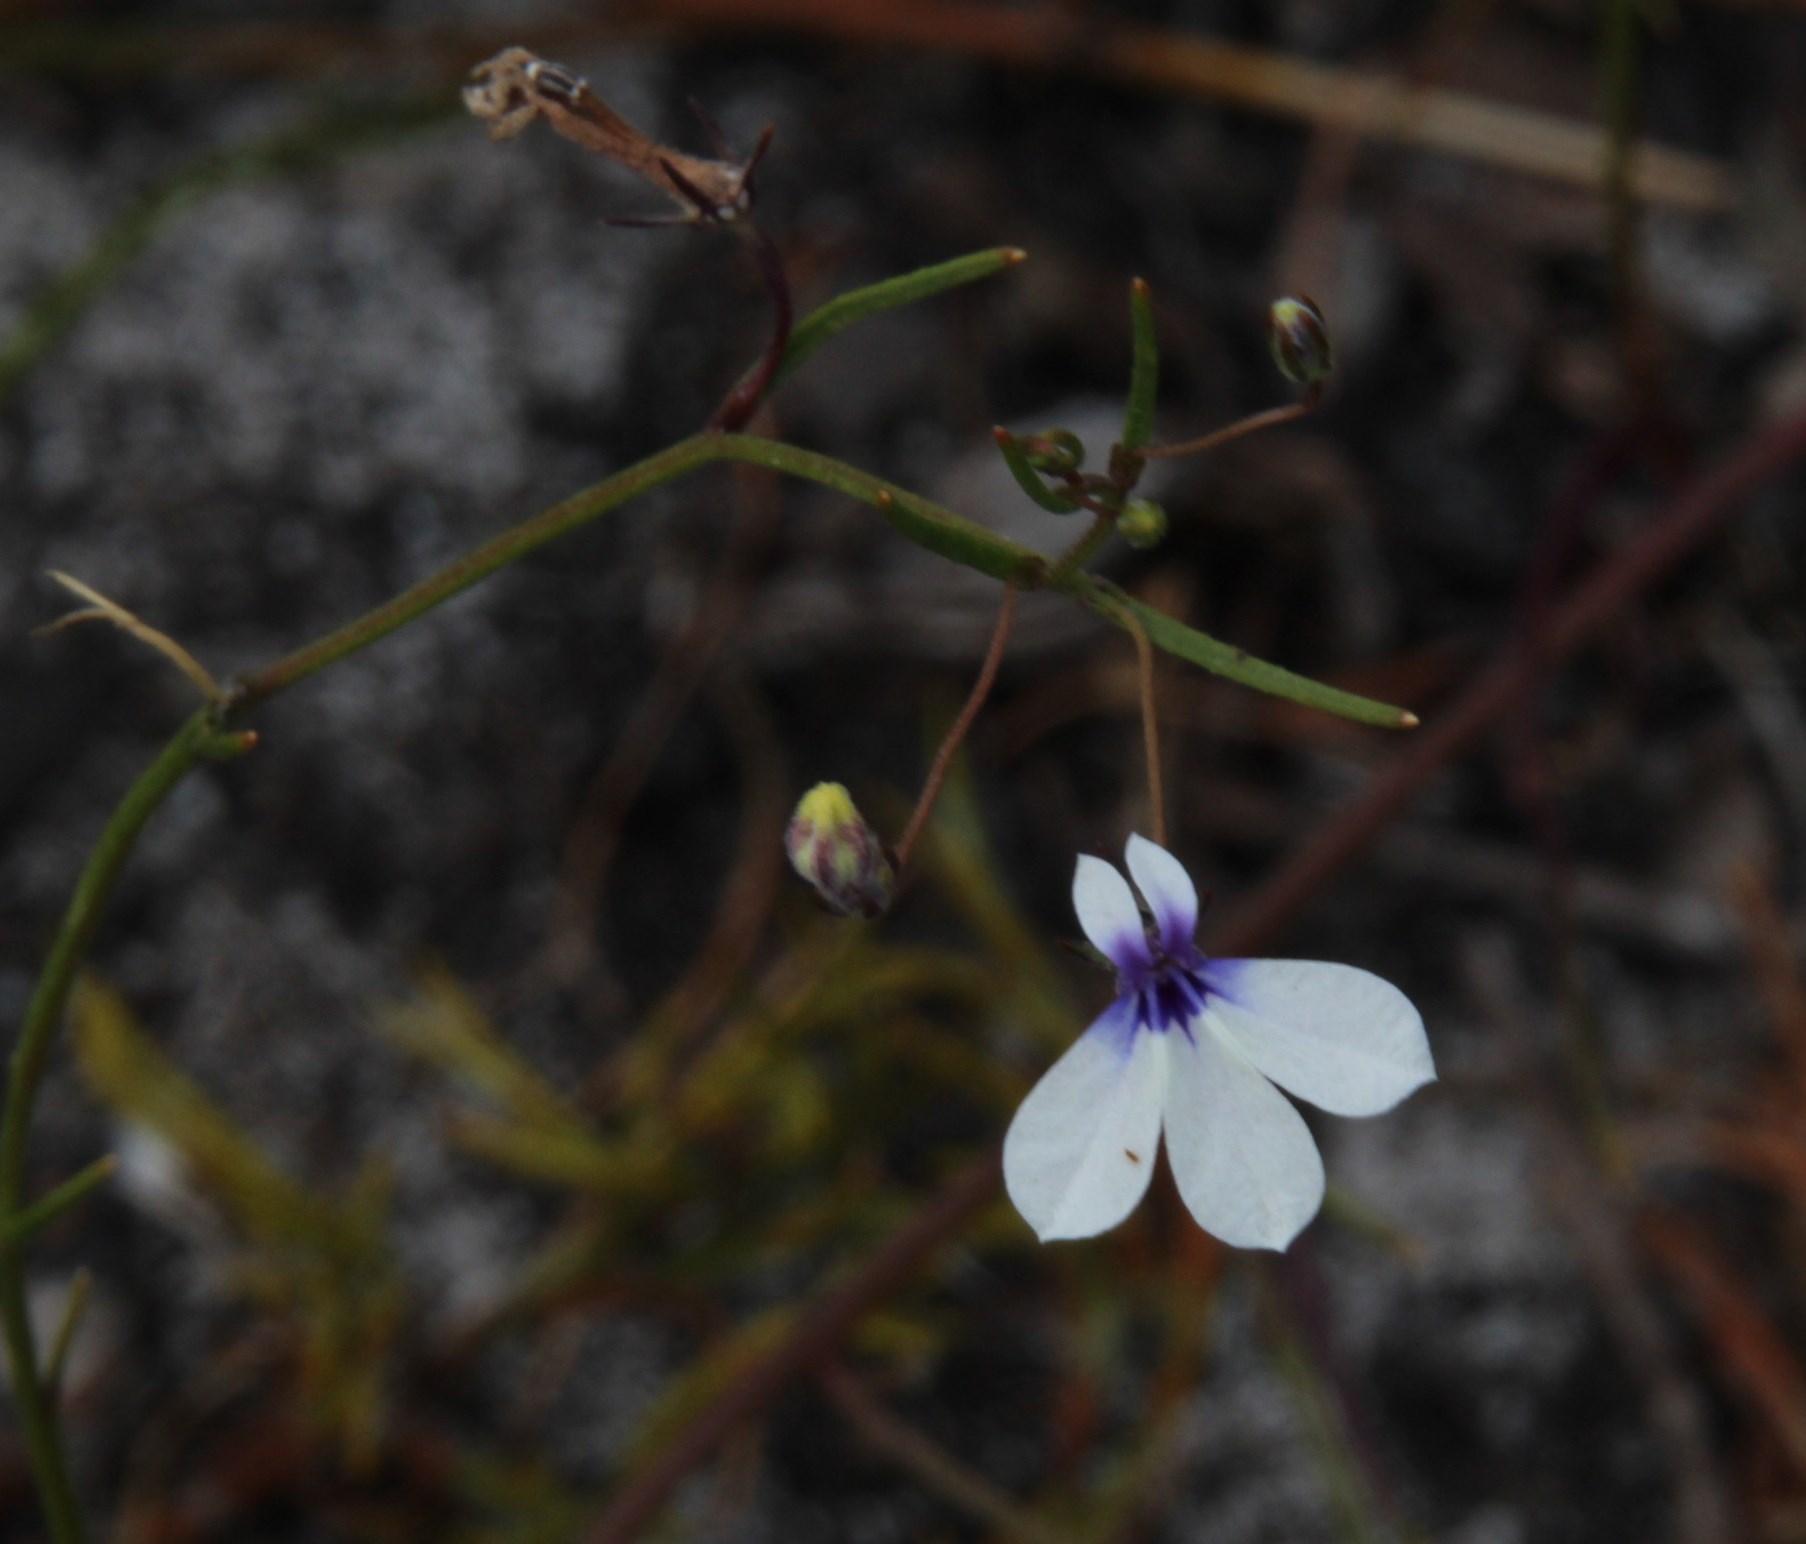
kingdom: Plantae
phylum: Tracheophyta
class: Magnoliopsida
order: Asterales
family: Campanulaceae
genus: Lobelia
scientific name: Lobelia setacea
